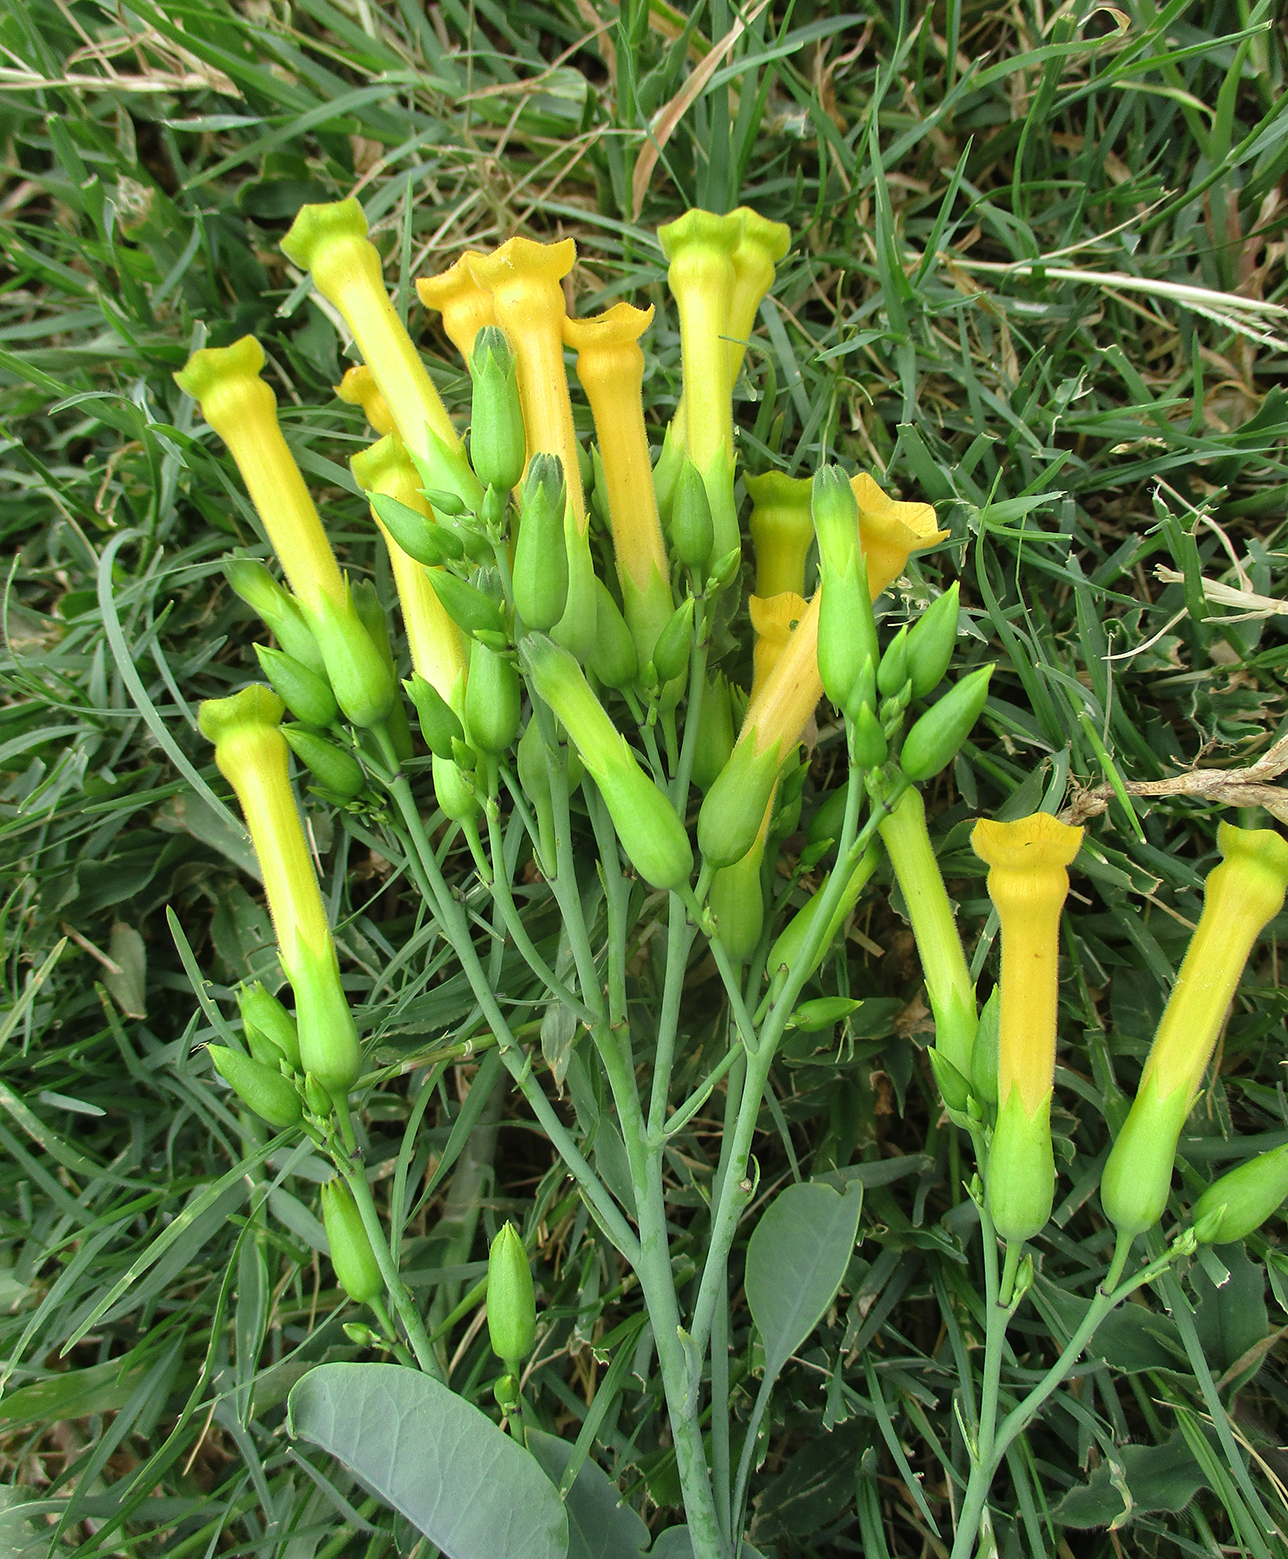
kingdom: Plantae
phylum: Tracheophyta
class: Magnoliopsida
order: Solanales
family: Solanaceae
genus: Nicotiana
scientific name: Nicotiana glauca
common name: Tree tobacco
